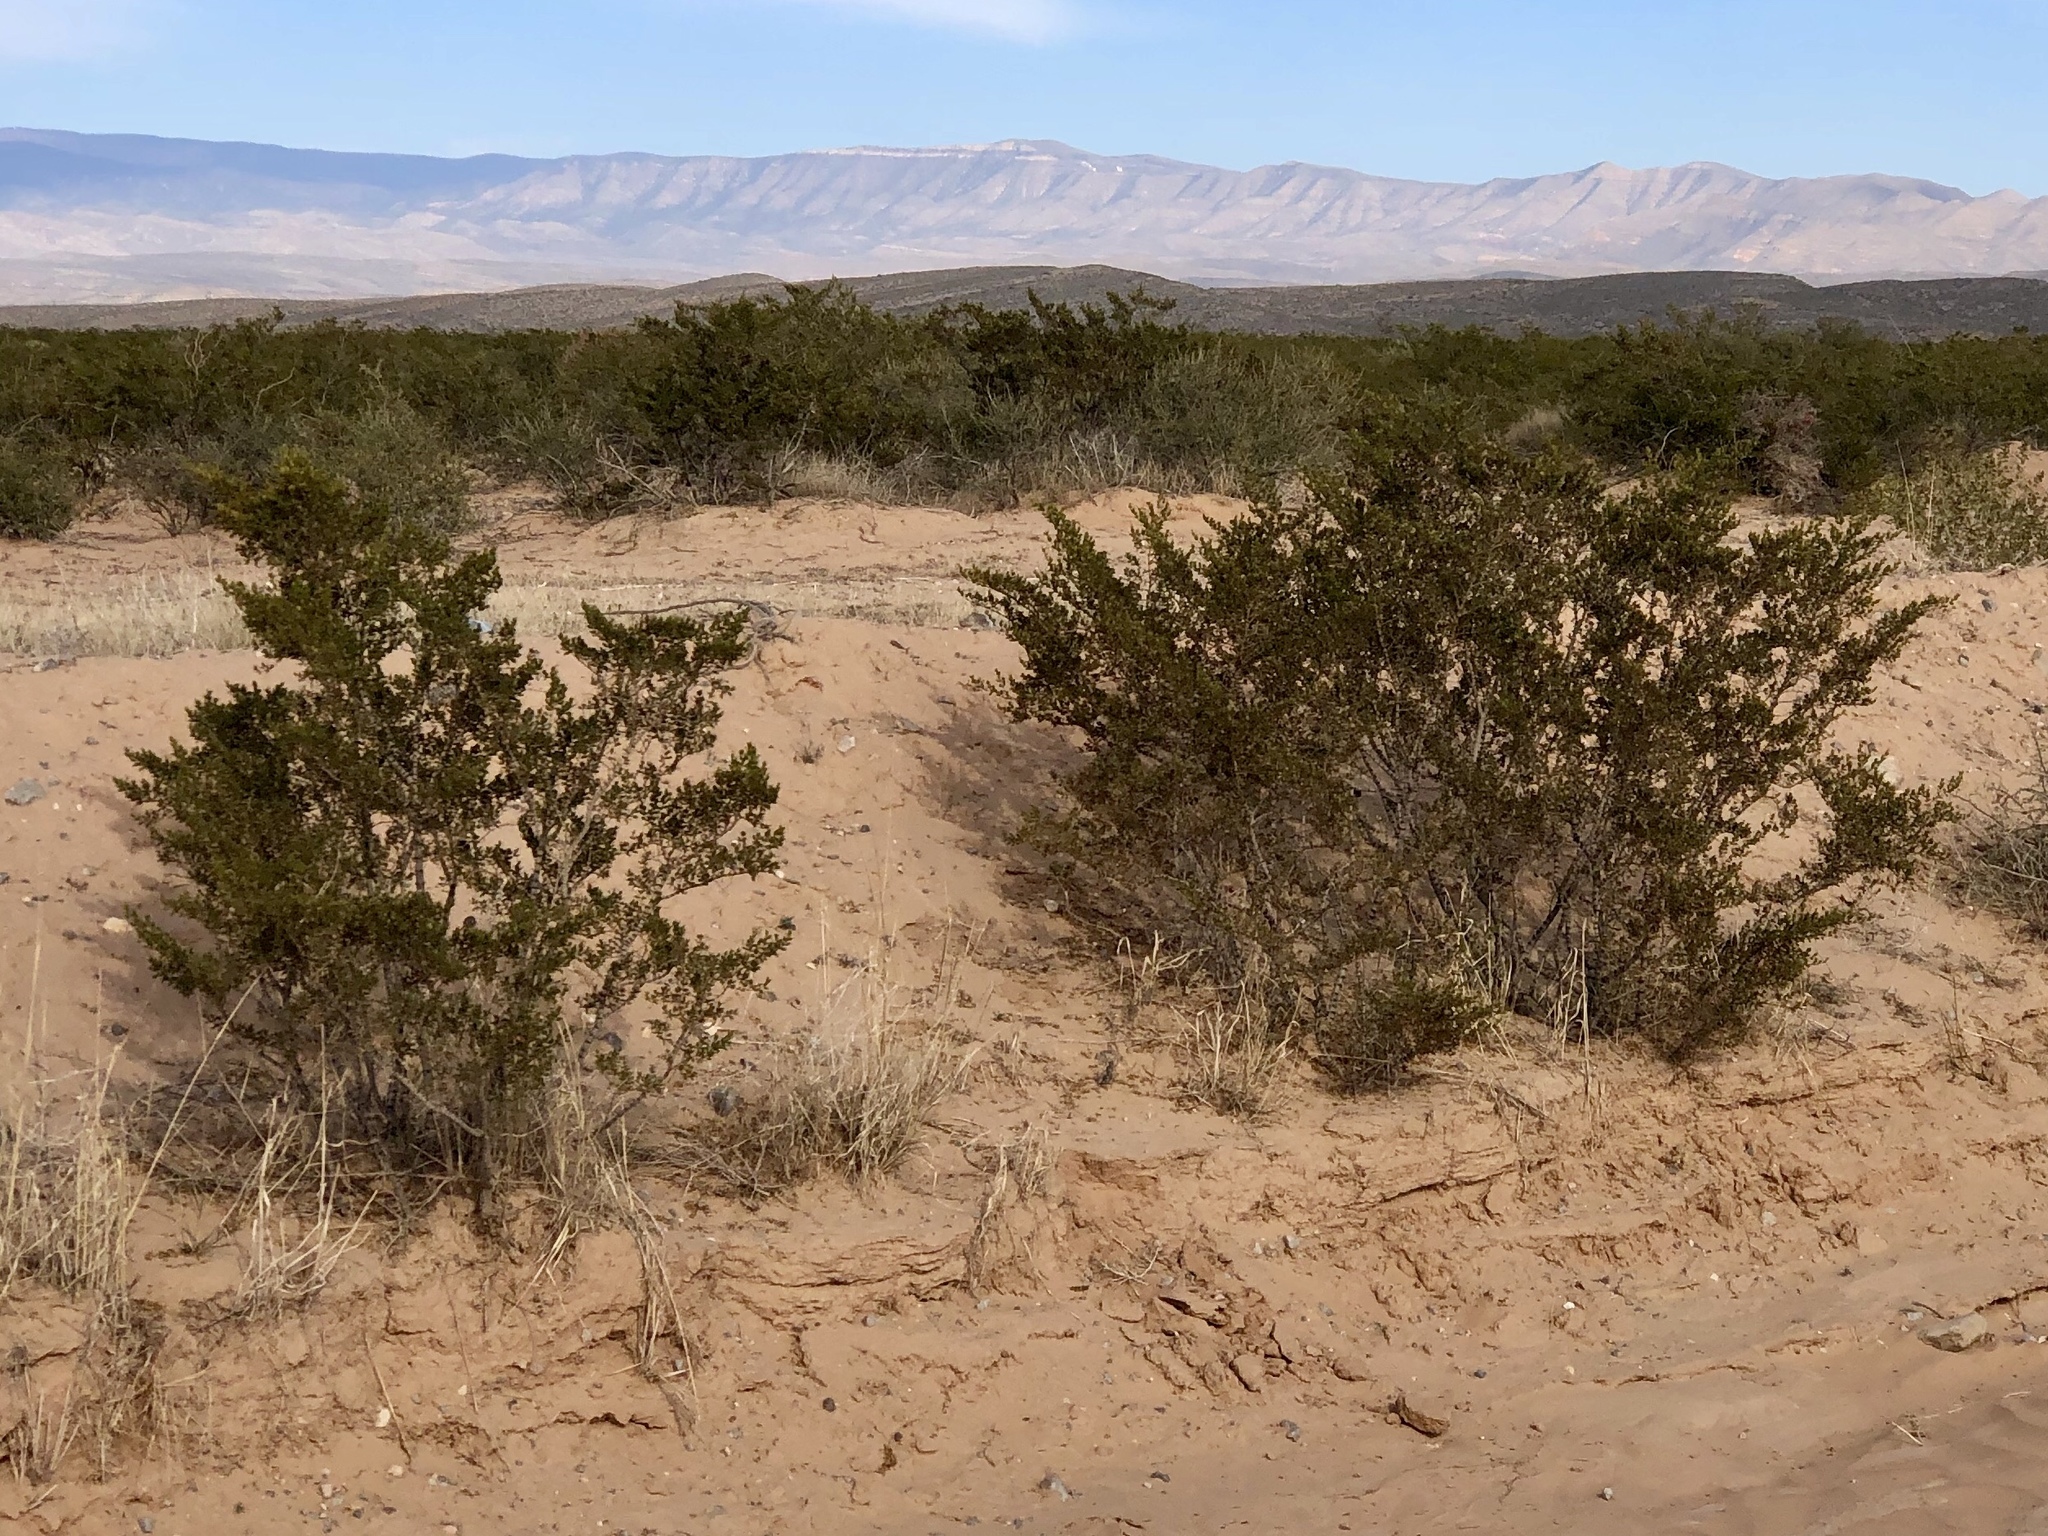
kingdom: Plantae
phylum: Tracheophyta
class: Magnoliopsida
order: Zygophyllales
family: Zygophyllaceae
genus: Larrea
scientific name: Larrea tridentata
